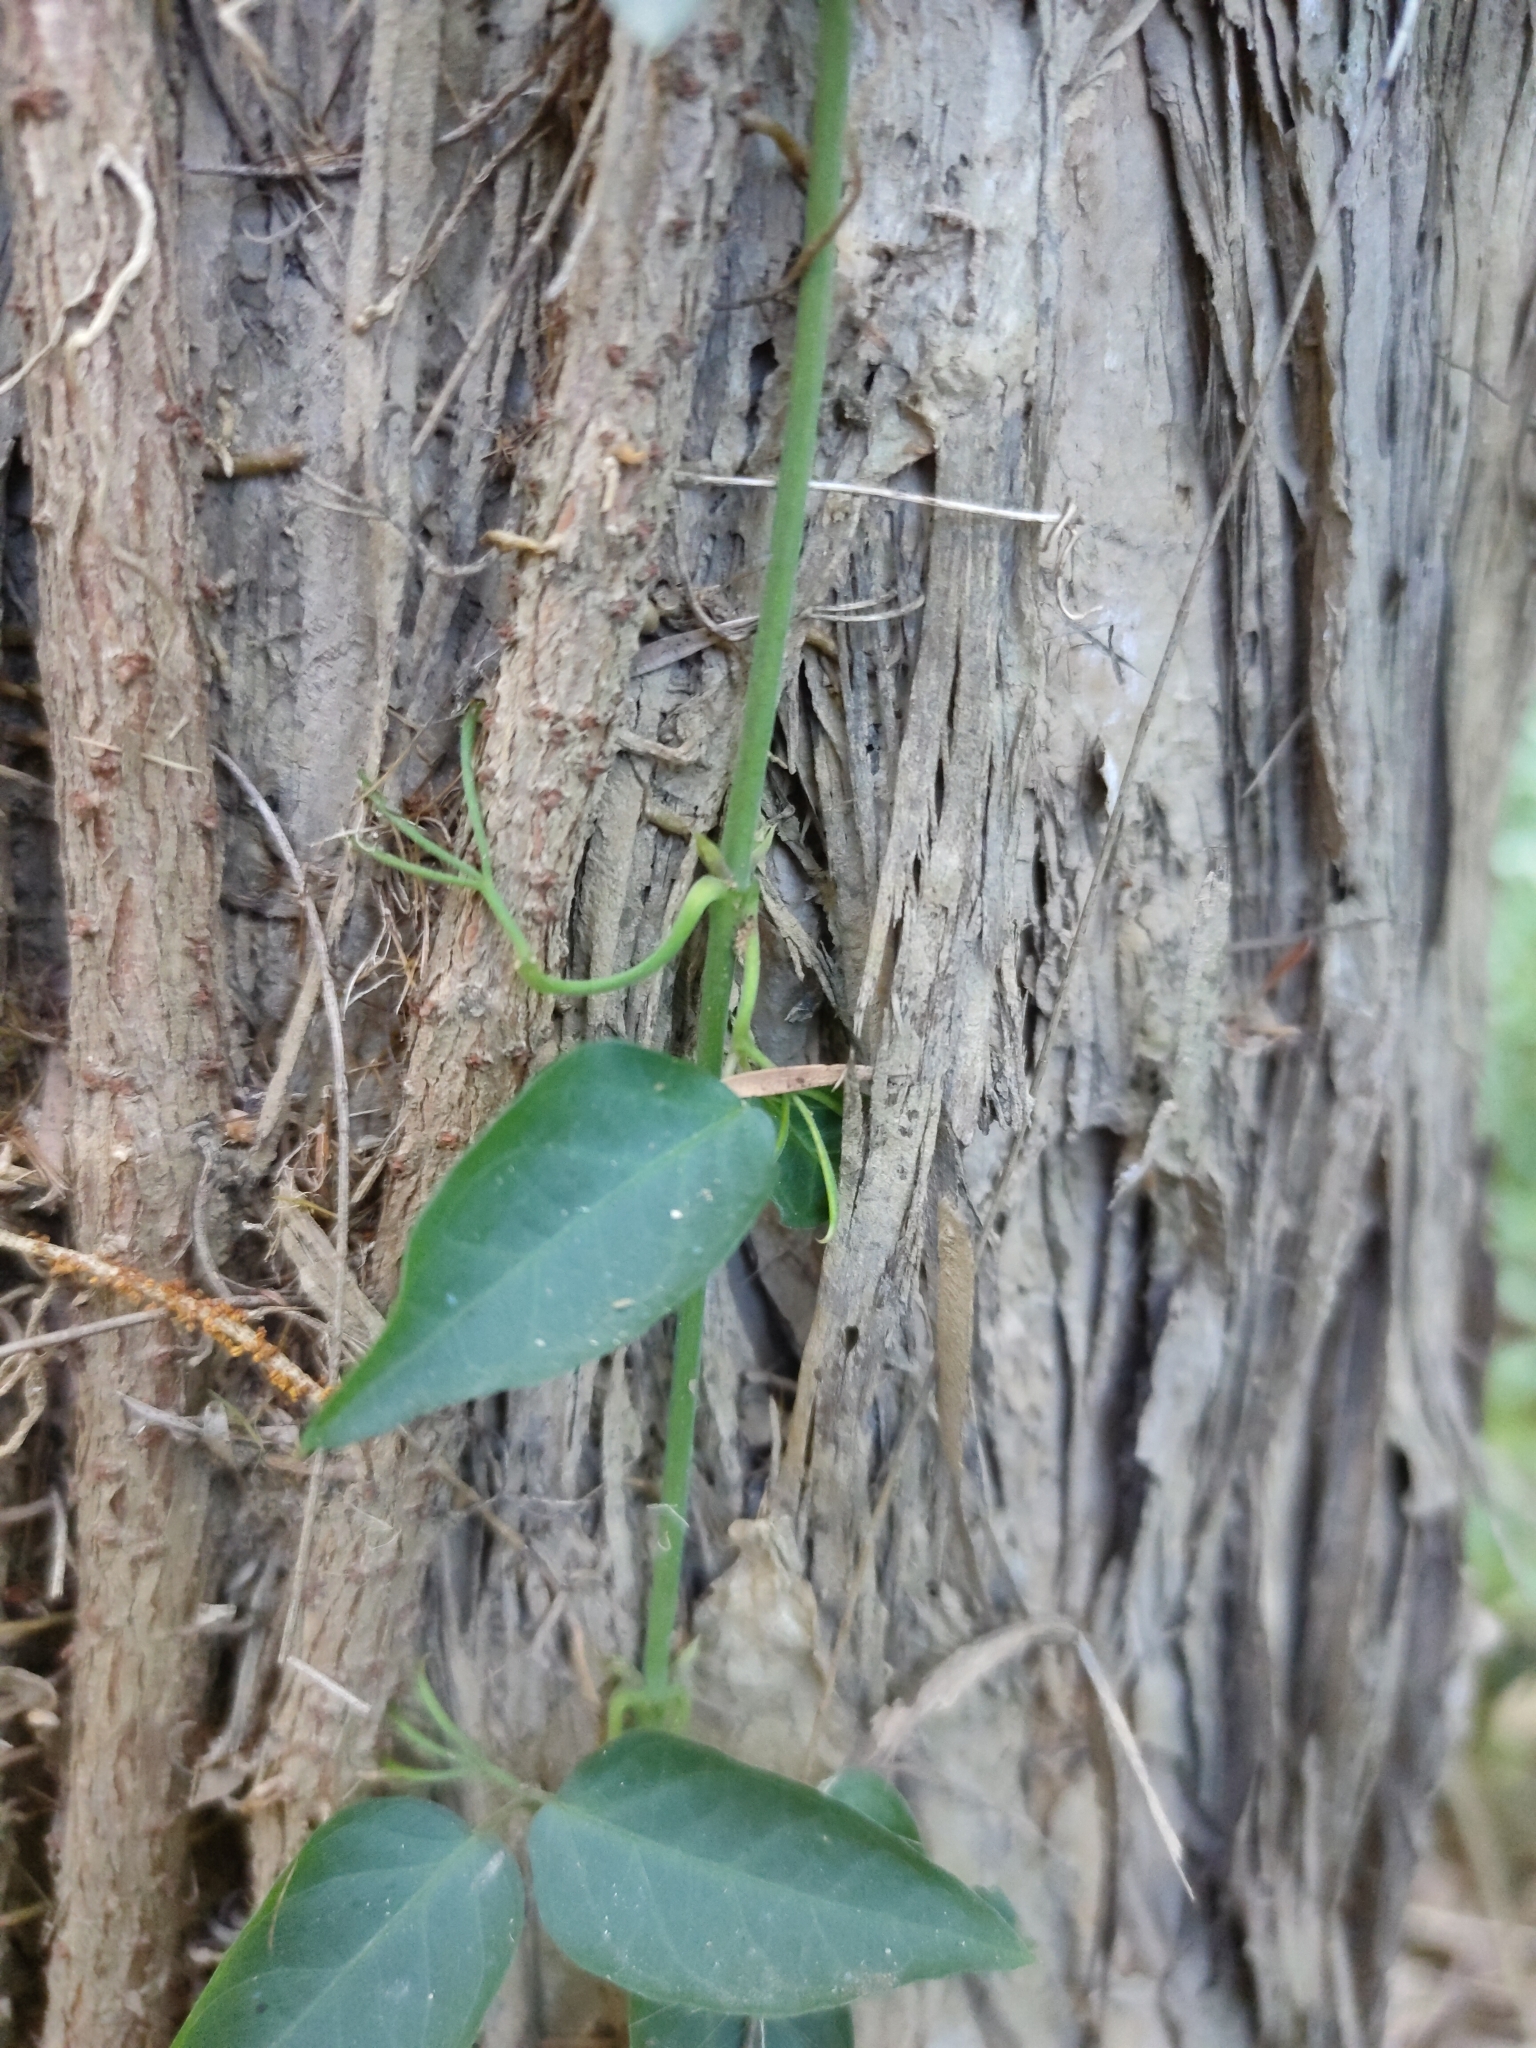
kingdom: Plantae
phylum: Tracheophyta
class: Magnoliopsida
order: Lamiales
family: Bignoniaceae
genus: Dolichandra
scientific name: Dolichandra unguis-cati
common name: Catclaw vine
